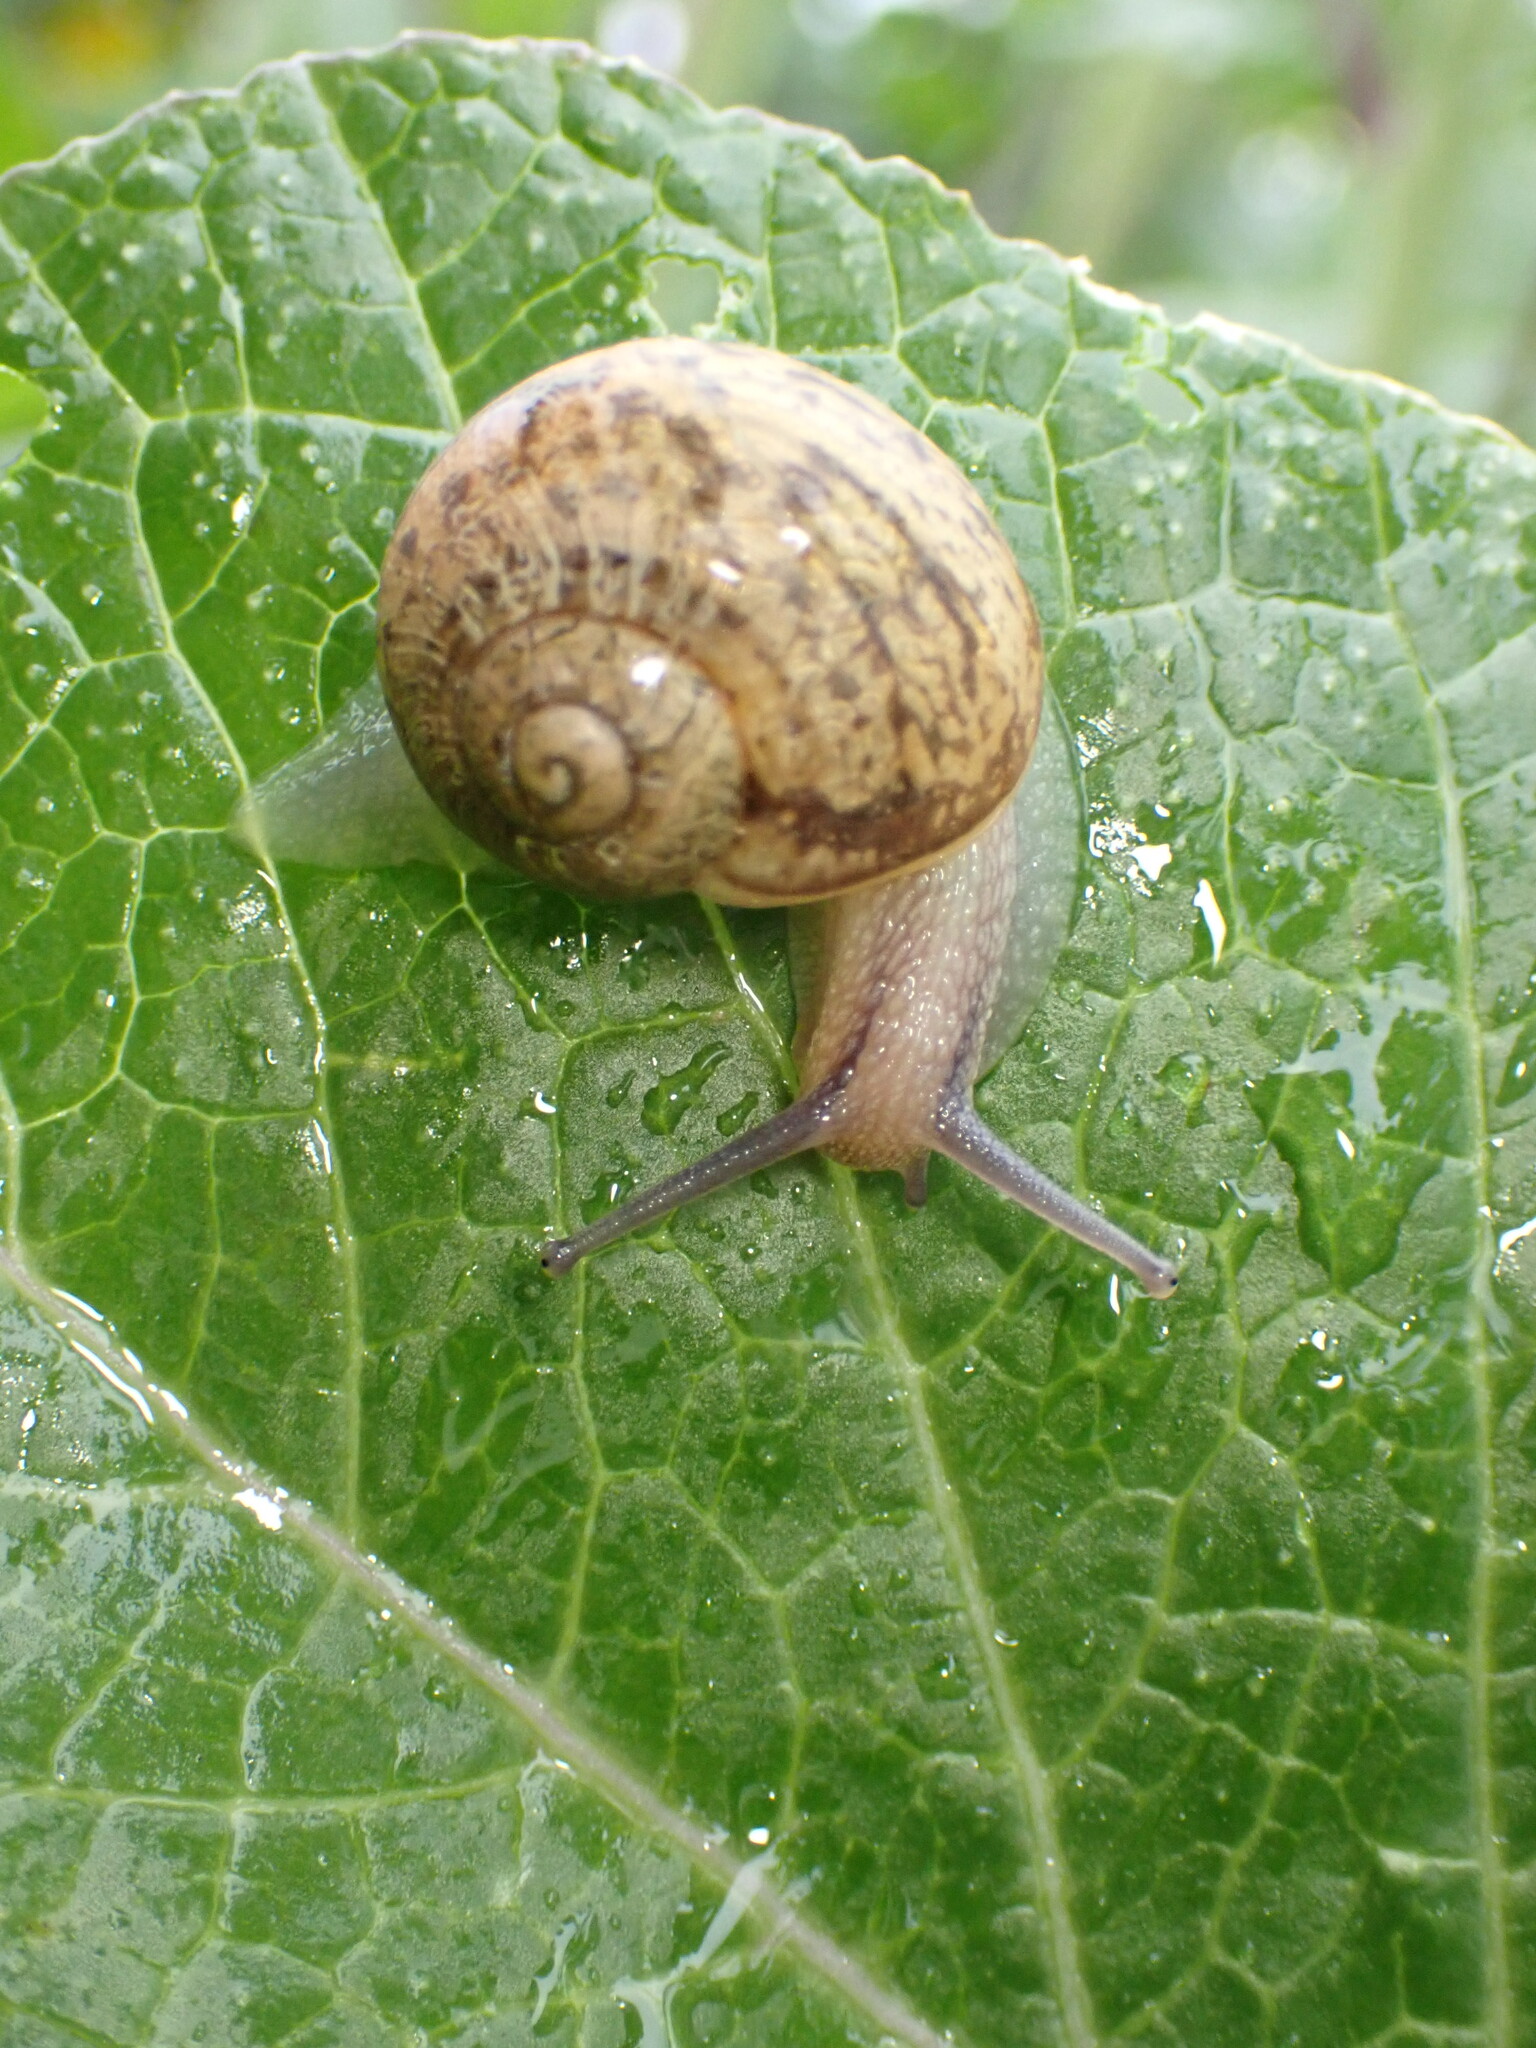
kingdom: Animalia
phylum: Mollusca
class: Gastropoda
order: Stylommatophora
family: Helicidae
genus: Cornu
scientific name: Cornu aspersum
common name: Brown garden snail
